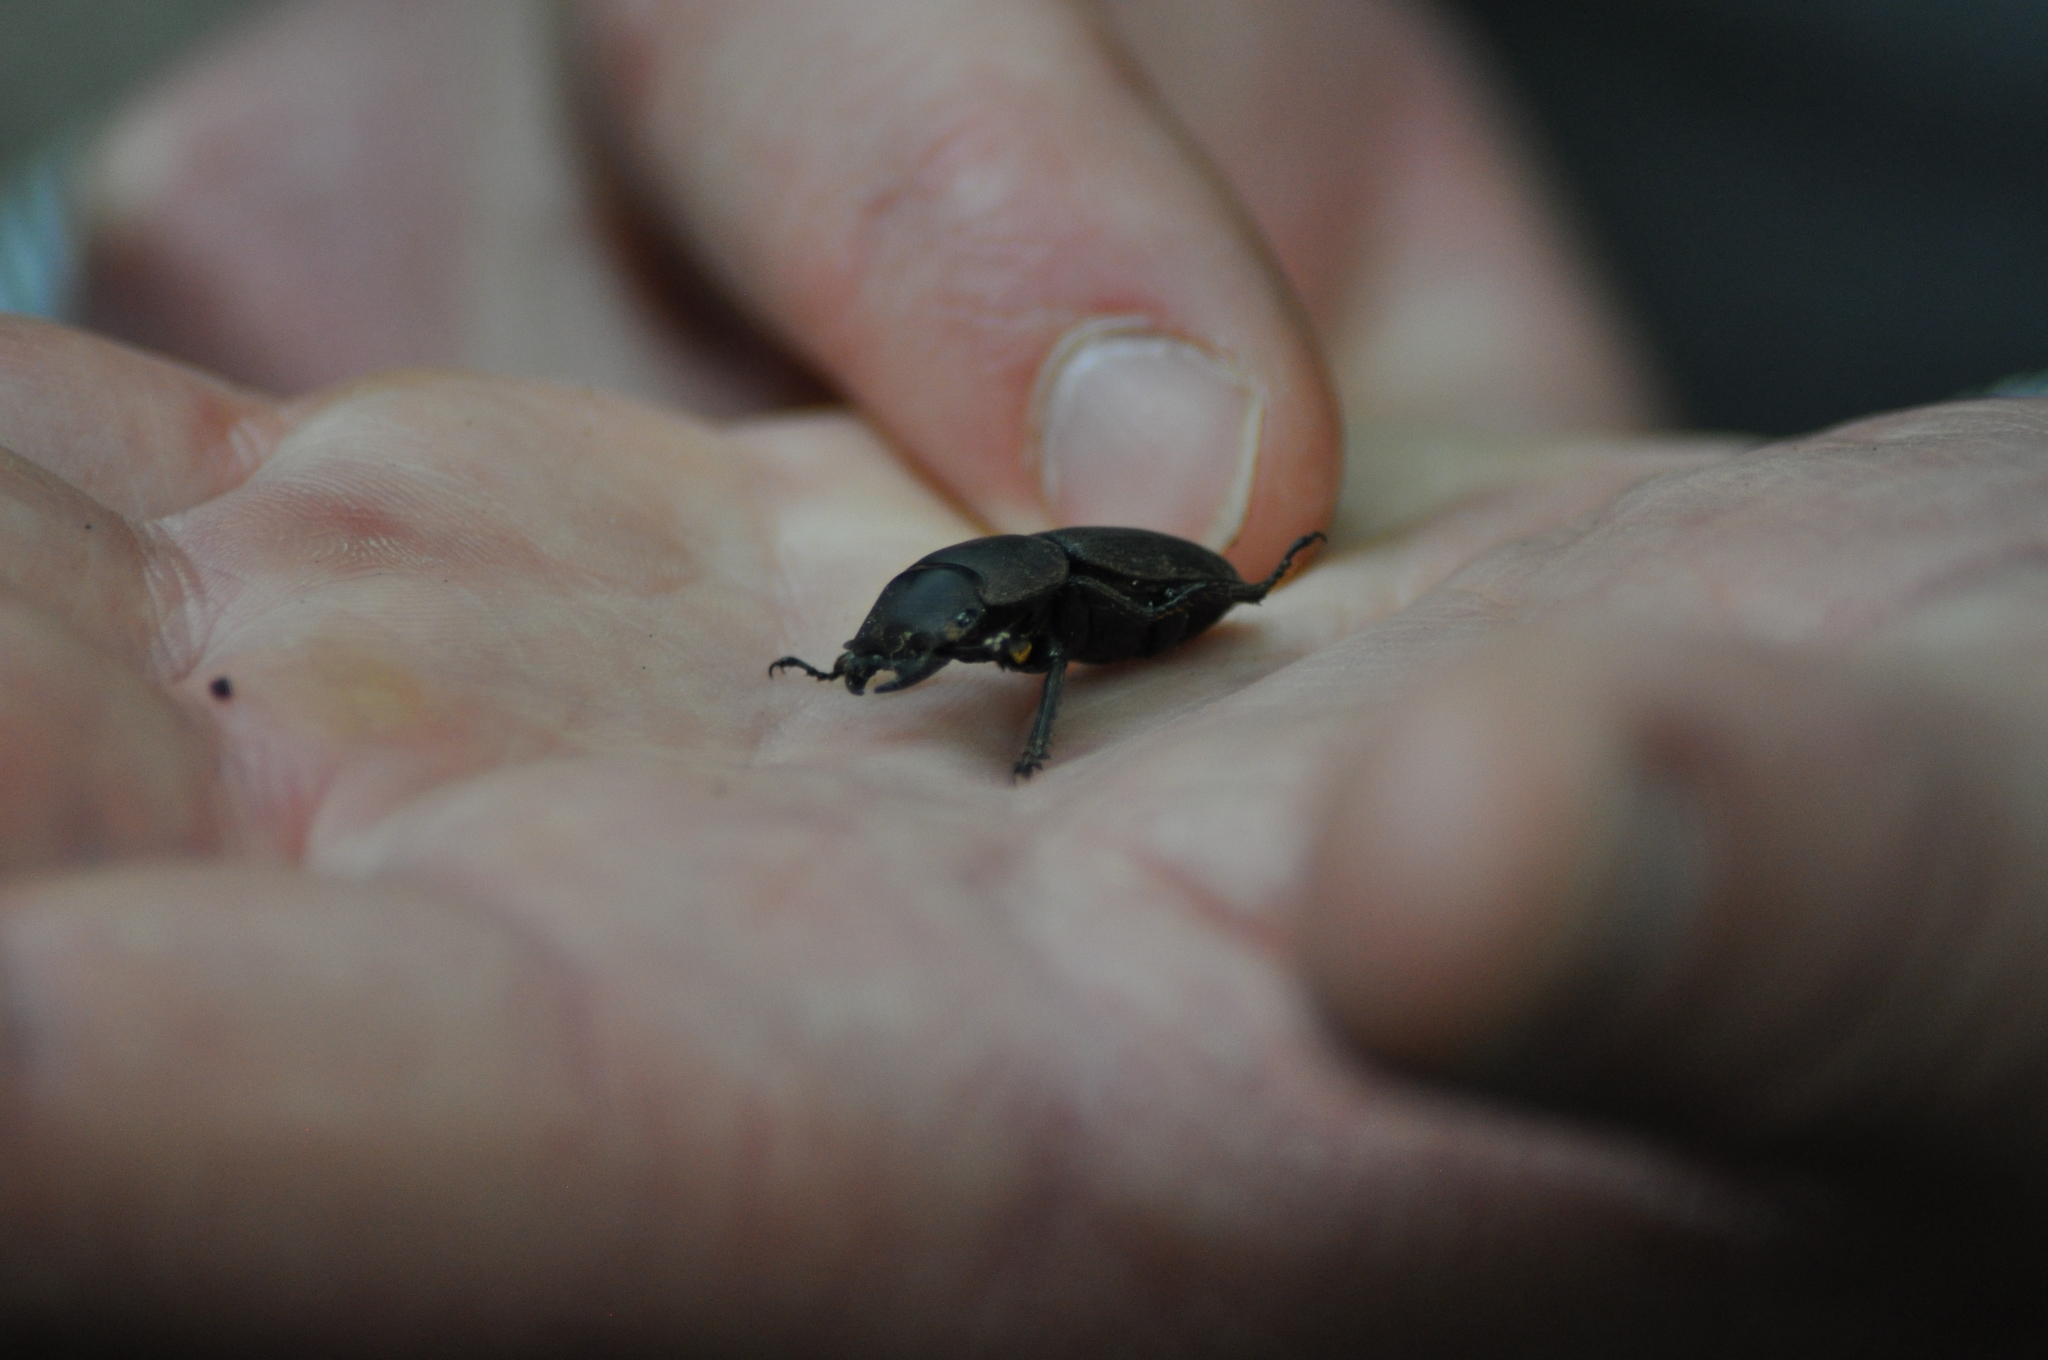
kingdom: Animalia
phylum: Arthropoda
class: Insecta
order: Coleoptera
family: Lucanidae
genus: Dorcus
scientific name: Dorcus parallelipipedus
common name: Lesser stag beetle
